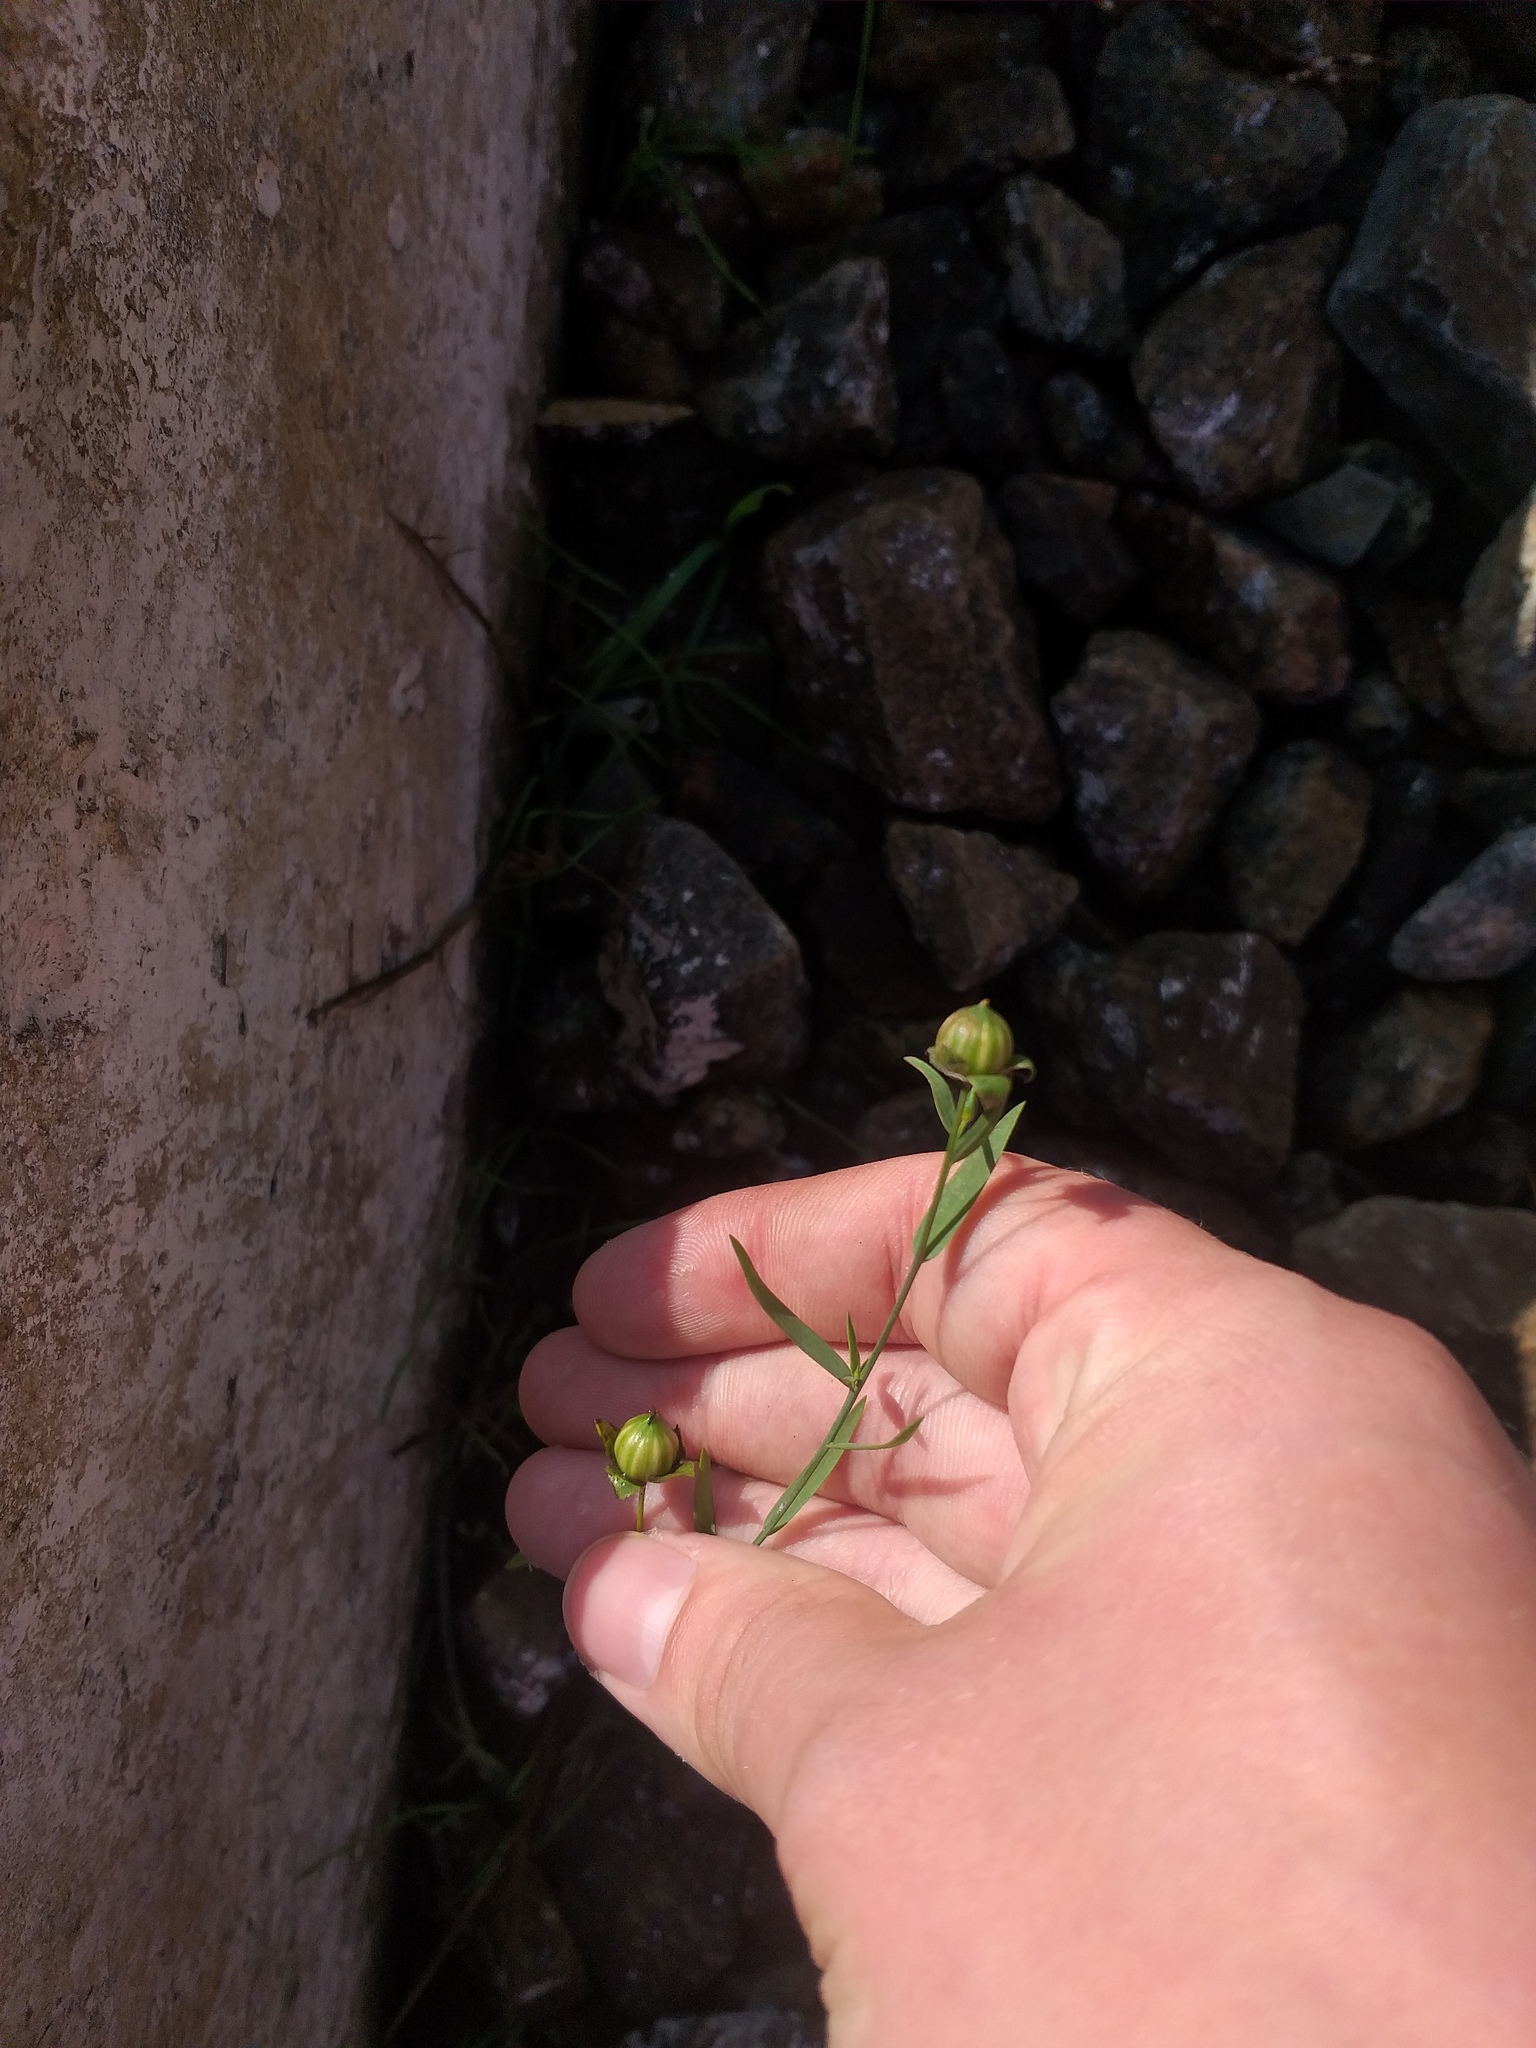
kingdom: Plantae
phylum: Tracheophyta
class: Magnoliopsida
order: Malpighiales
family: Linaceae
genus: Linum
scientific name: Linum usitatissimum
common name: Flax
